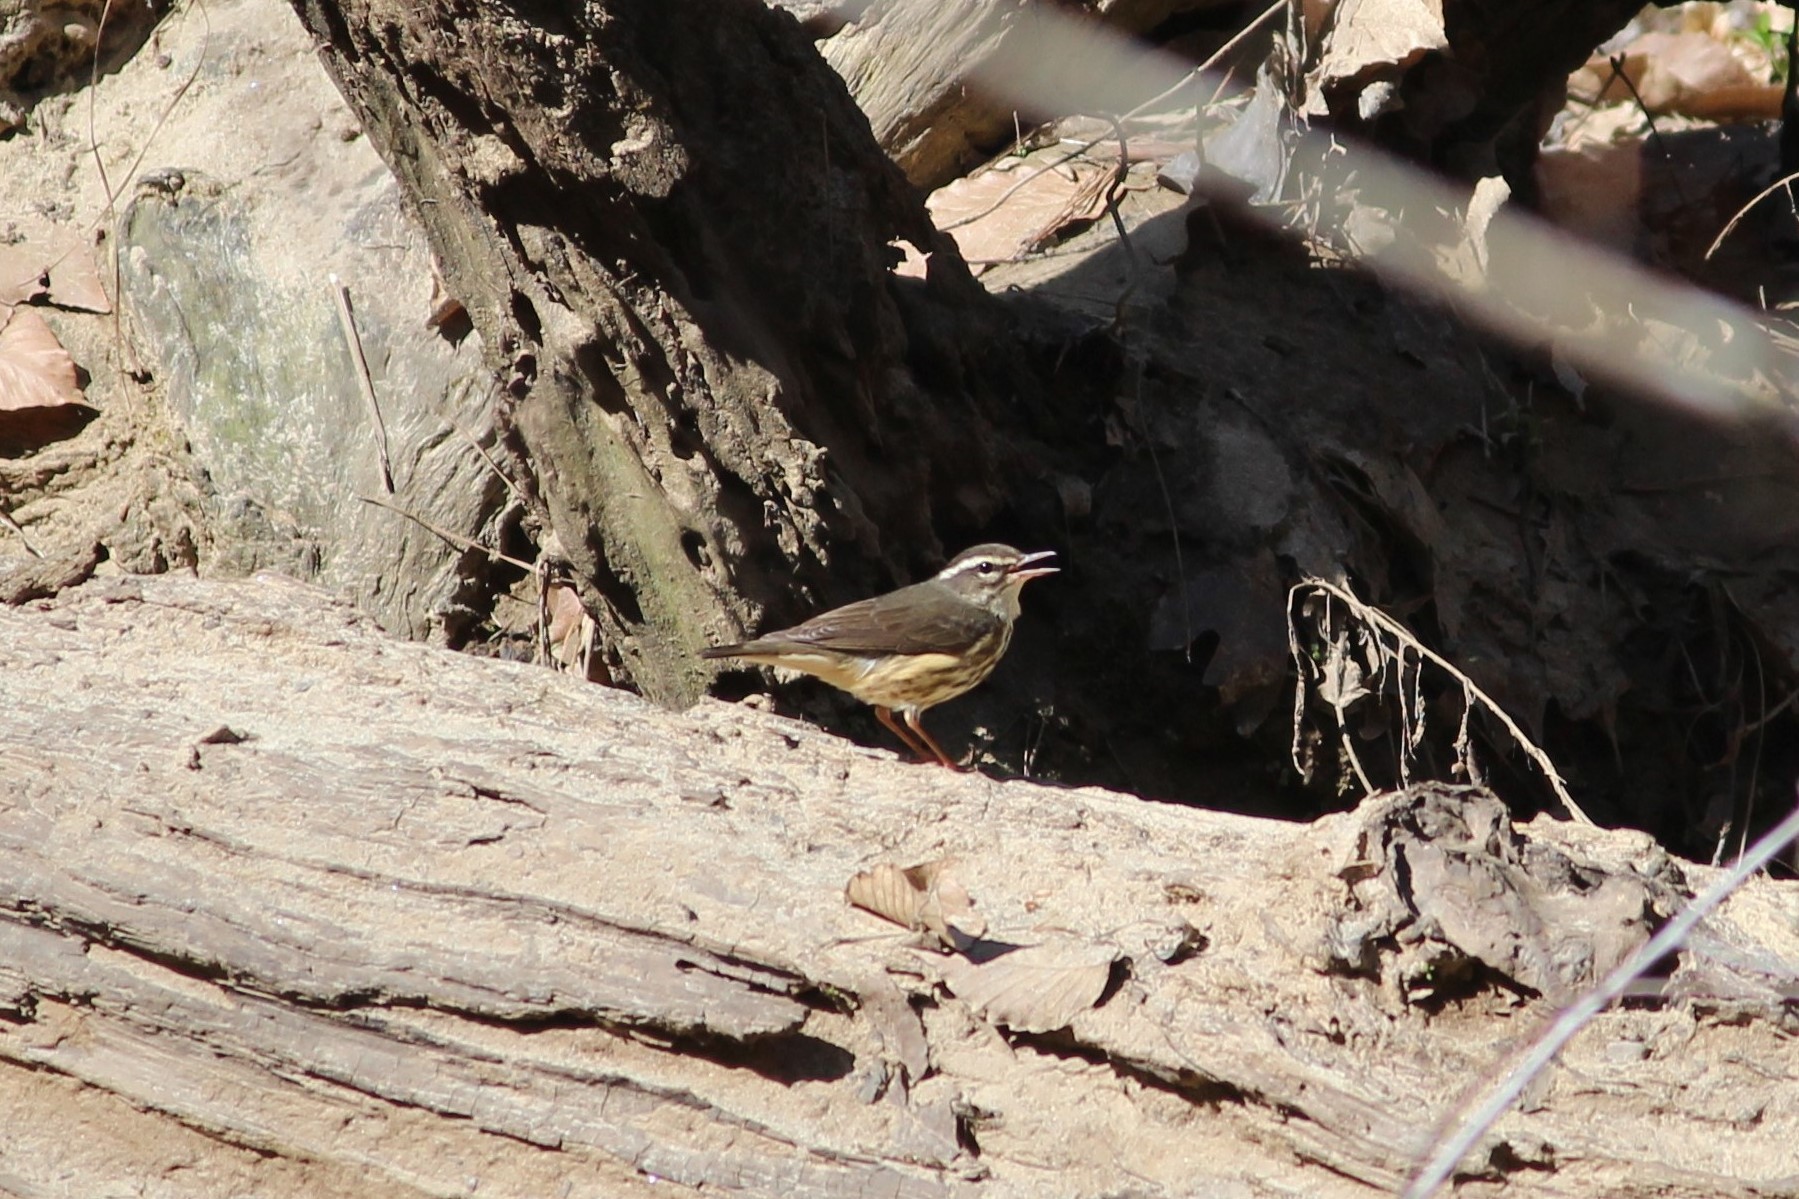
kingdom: Animalia
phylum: Chordata
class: Aves
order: Passeriformes
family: Parulidae
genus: Parkesia
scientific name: Parkesia motacilla
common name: Louisiana waterthrush
